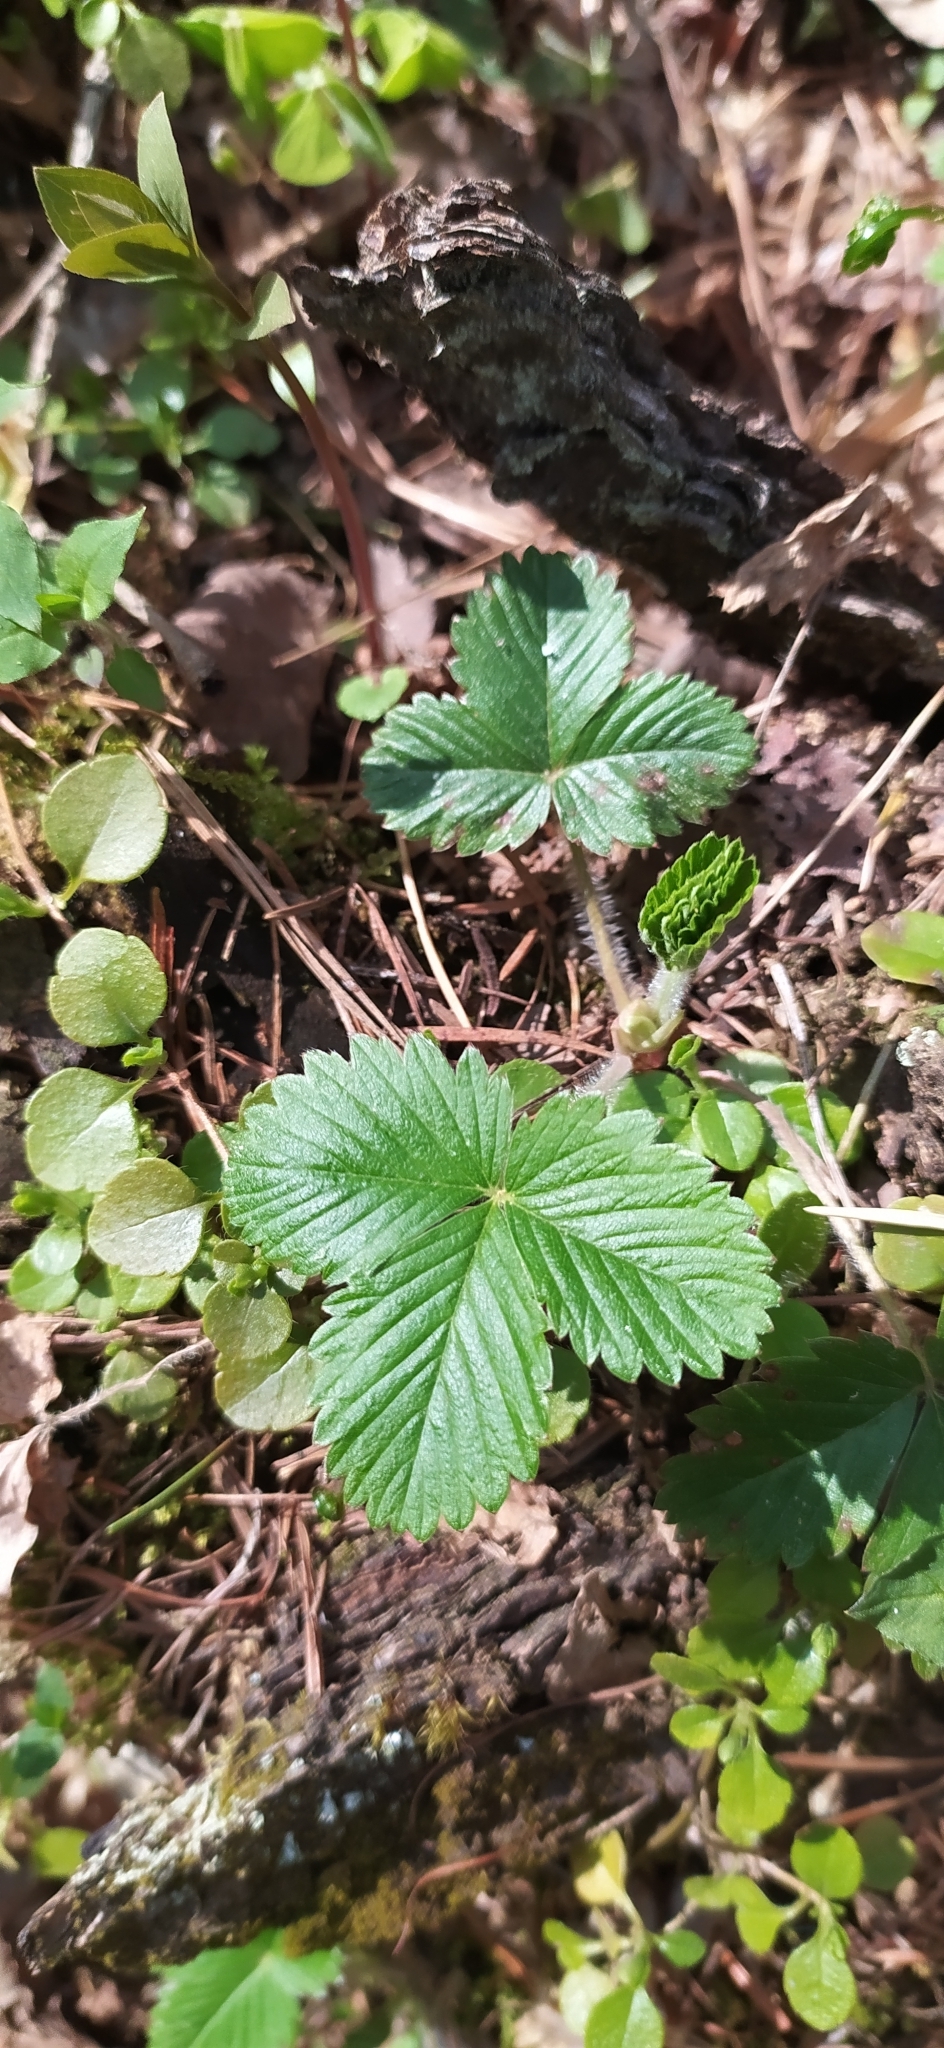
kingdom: Plantae
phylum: Tracheophyta
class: Magnoliopsida
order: Rosales
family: Rosaceae
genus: Fragaria
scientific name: Fragaria vesca
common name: Wild strawberry
